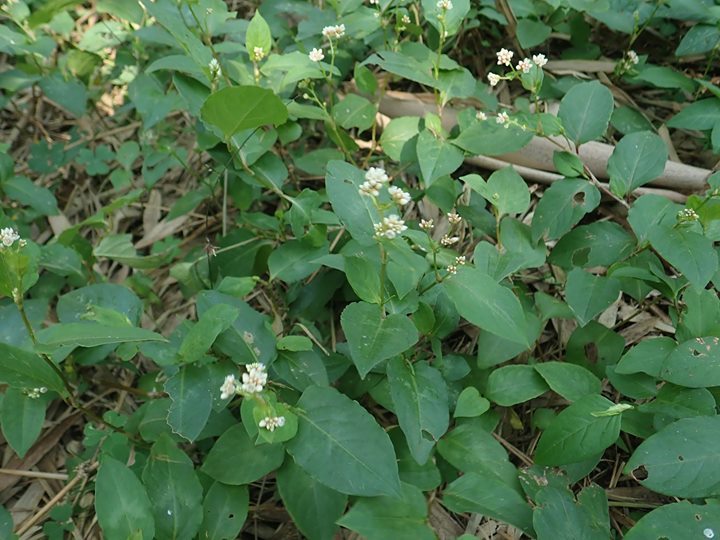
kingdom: Plantae
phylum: Tracheophyta
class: Magnoliopsida
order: Caryophyllales
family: Polygonaceae
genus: Persicaria
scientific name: Persicaria chinensis
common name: Chinese knotweed
